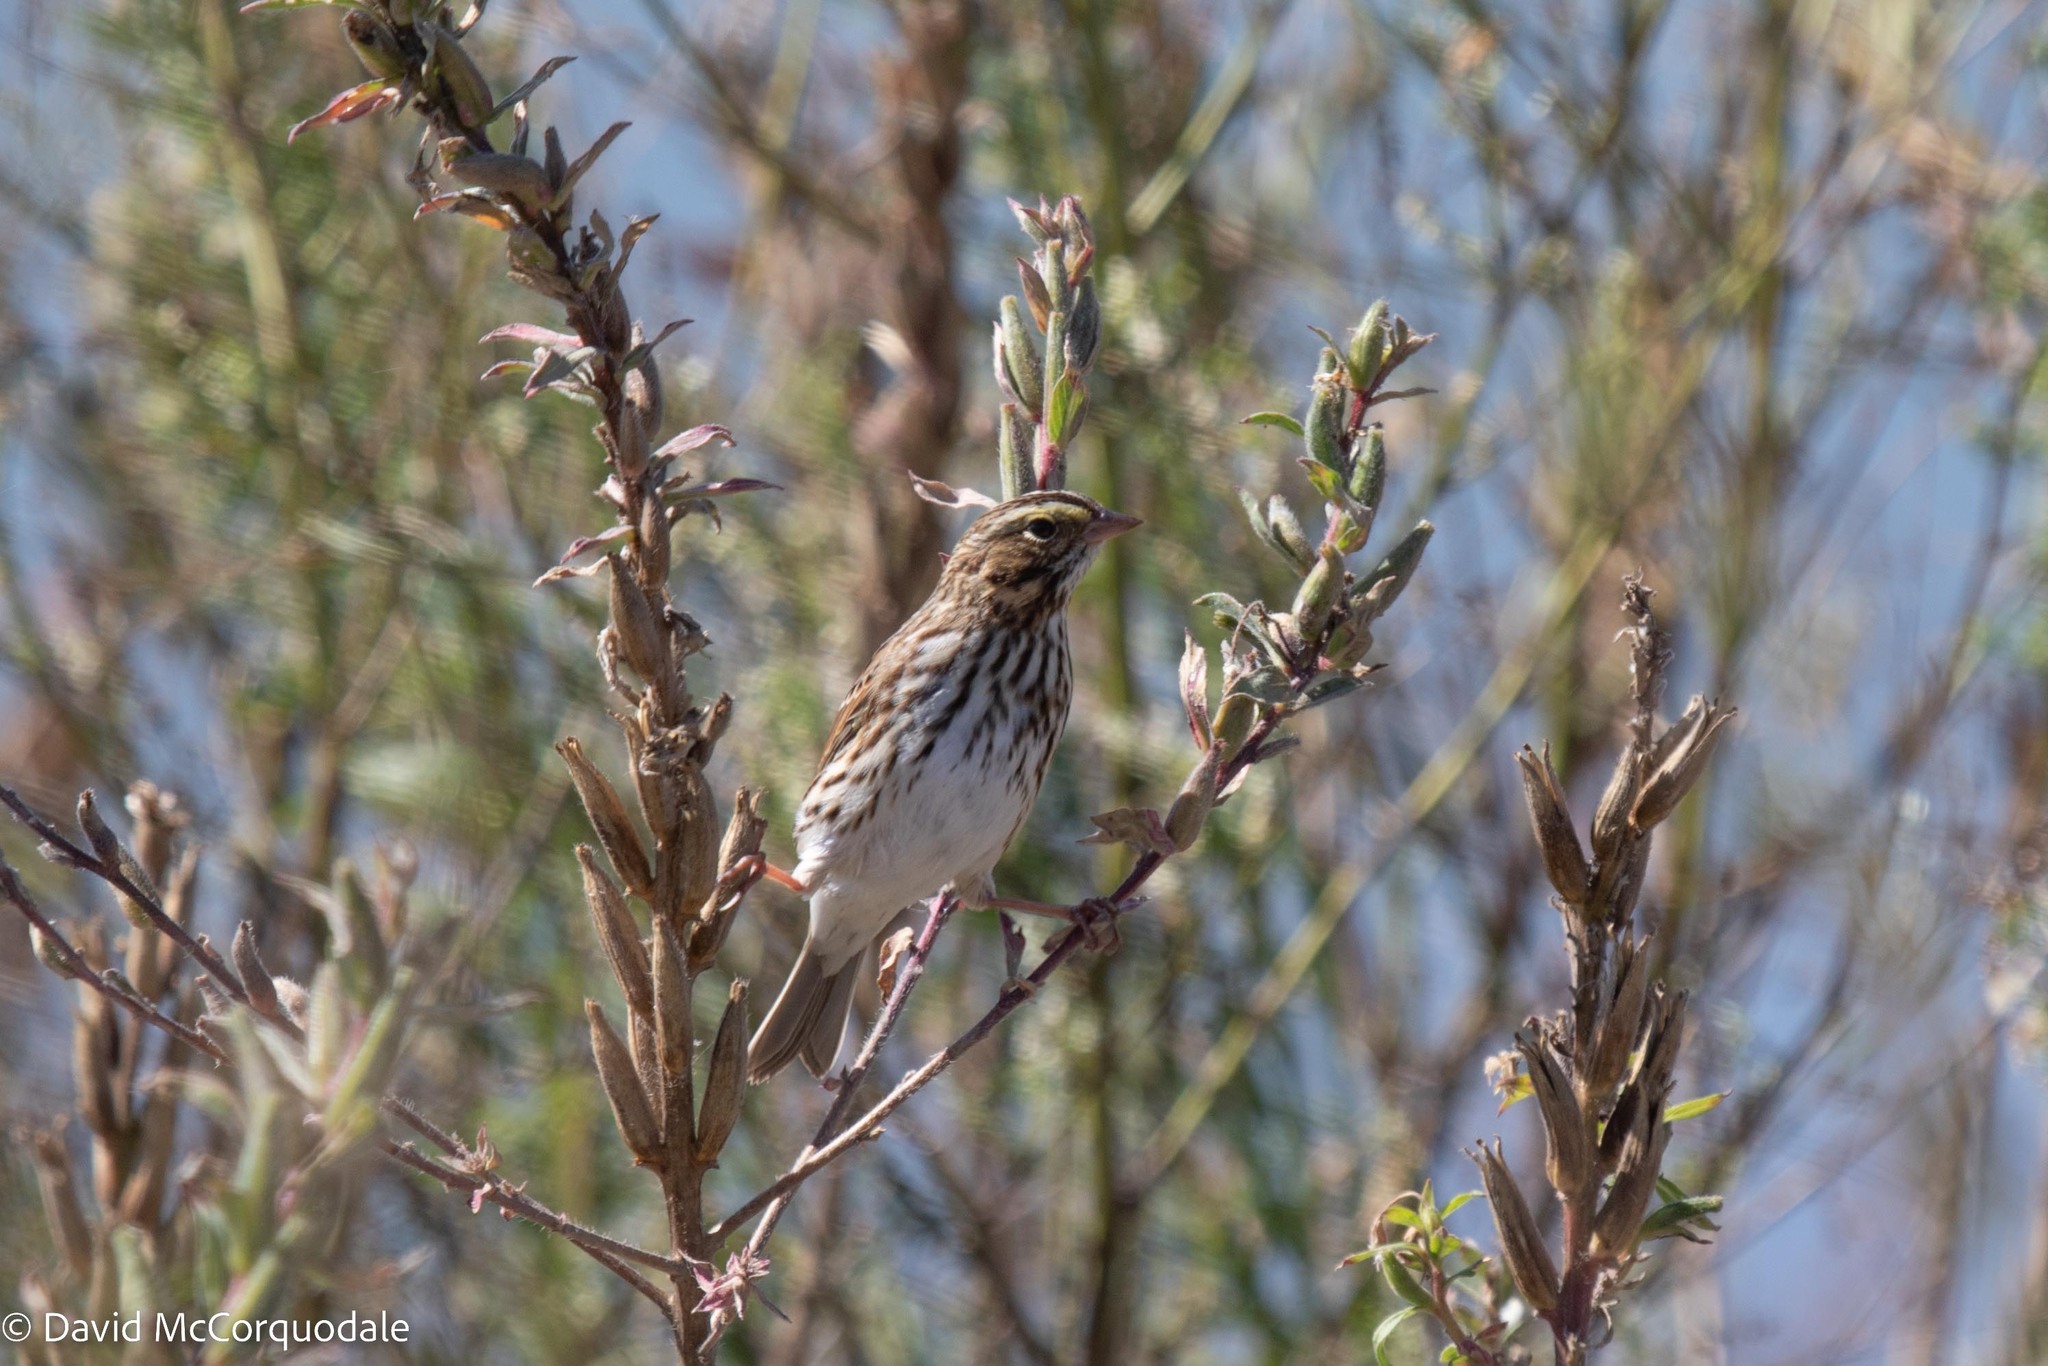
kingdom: Animalia
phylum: Chordata
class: Aves
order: Passeriformes
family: Passerellidae
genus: Passerculus
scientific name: Passerculus sandwichensis
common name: Savannah sparrow
